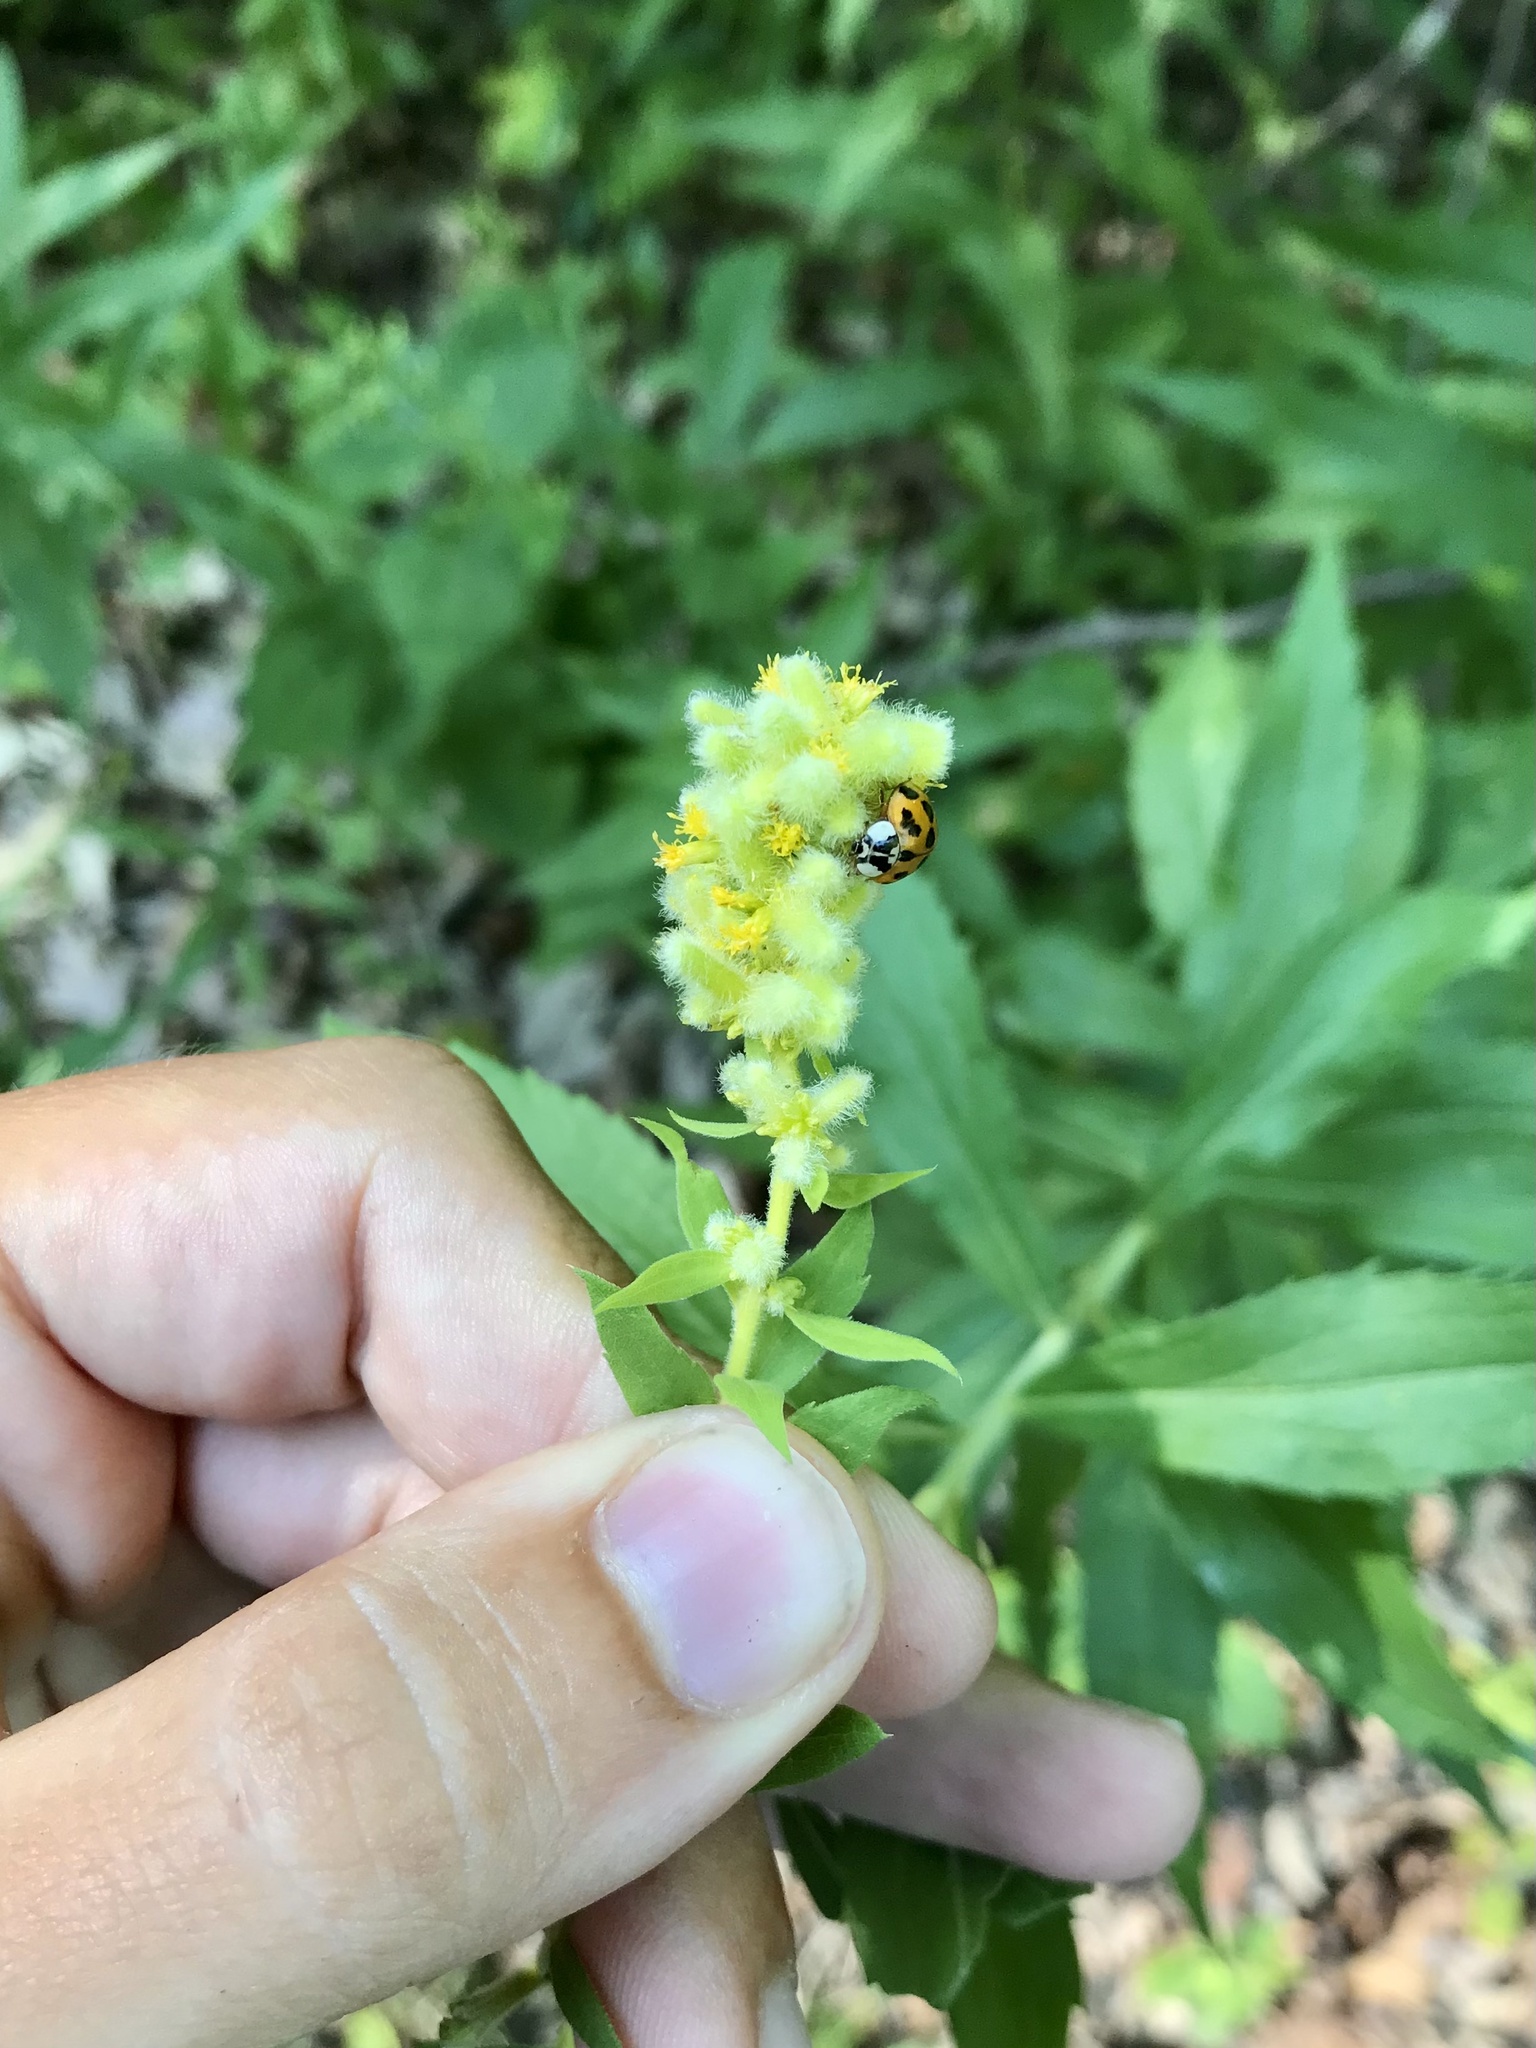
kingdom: Animalia
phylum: Arthropoda
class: Insecta
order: Diptera
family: Cecidomyiidae
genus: Rhopalomyia
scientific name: Rhopalomyia anthophila
